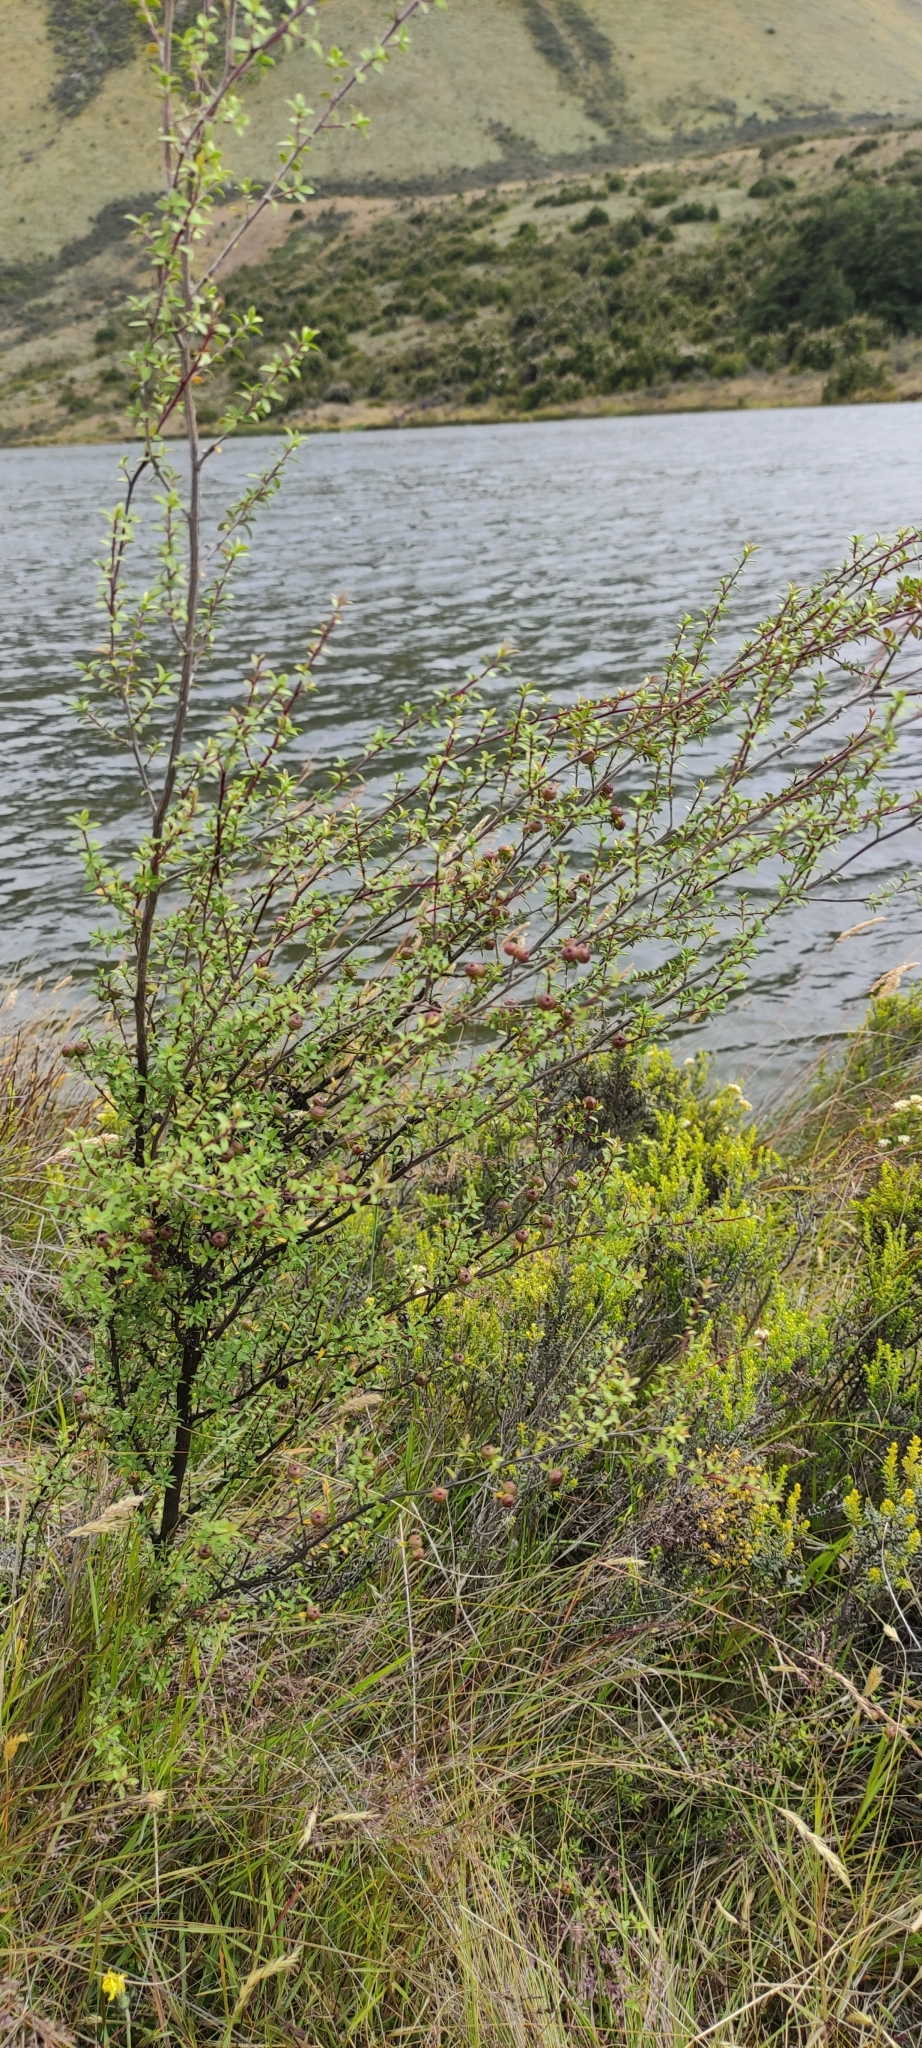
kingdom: Plantae
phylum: Tracheophyta
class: Magnoliopsida
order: Myrtales
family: Myrtaceae
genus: Leptospermum
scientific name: Leptospermum scoparium
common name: Broom tea-tree
